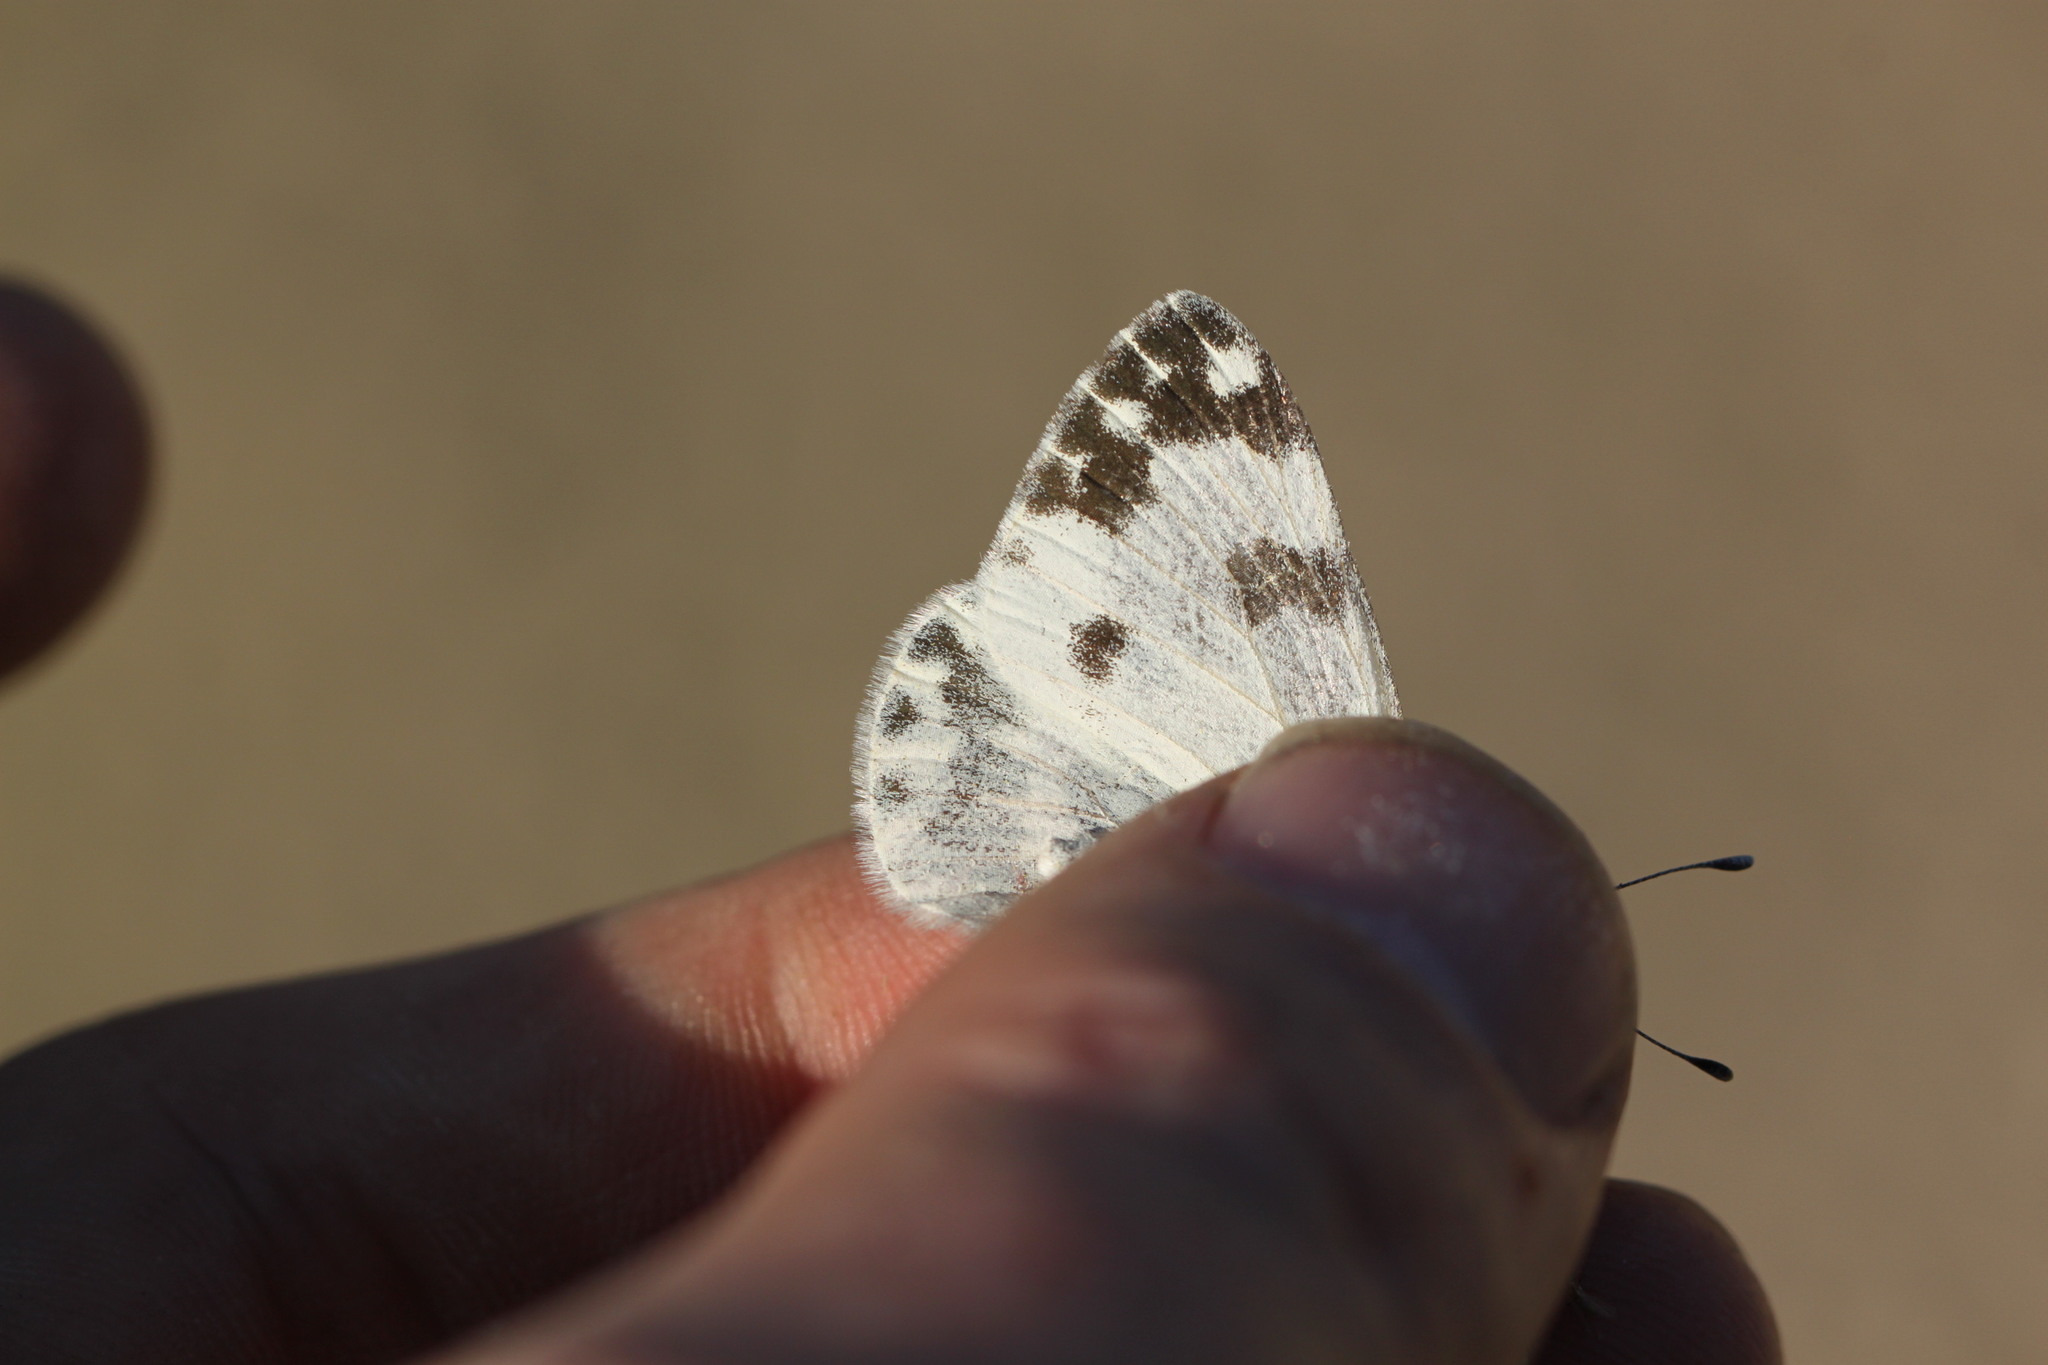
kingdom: Animalia
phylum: Arthropoda
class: Insecta
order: Lepidoptera
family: Pieridae
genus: Pontia
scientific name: Pontia daplidice
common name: Bath white
